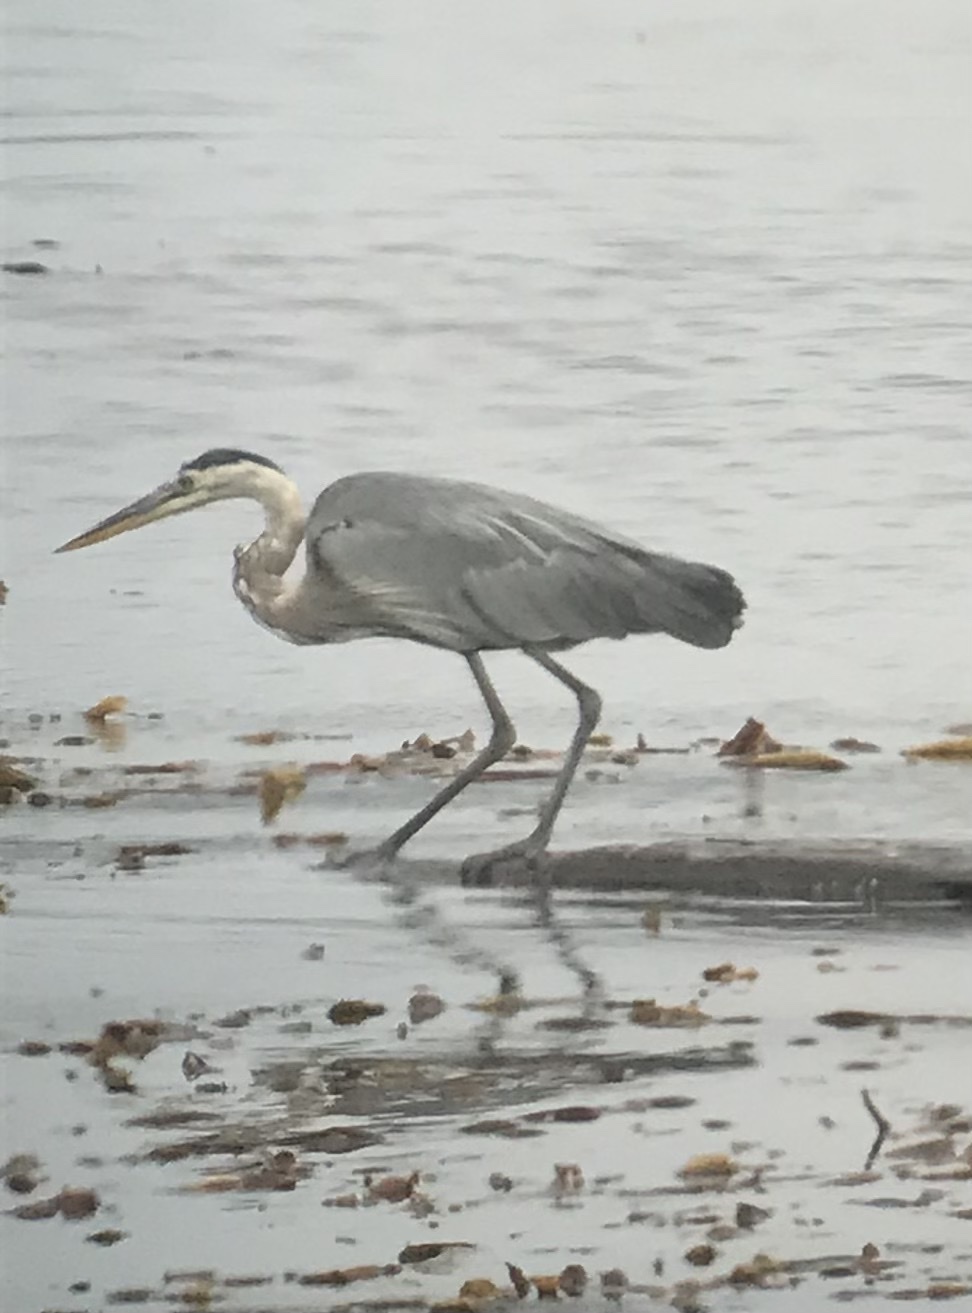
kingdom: Animalia
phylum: Chordata
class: Aves
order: Pelecaniformes
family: Ardeidae
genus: Ardea
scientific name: Ardea herodias
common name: Great blue heron
